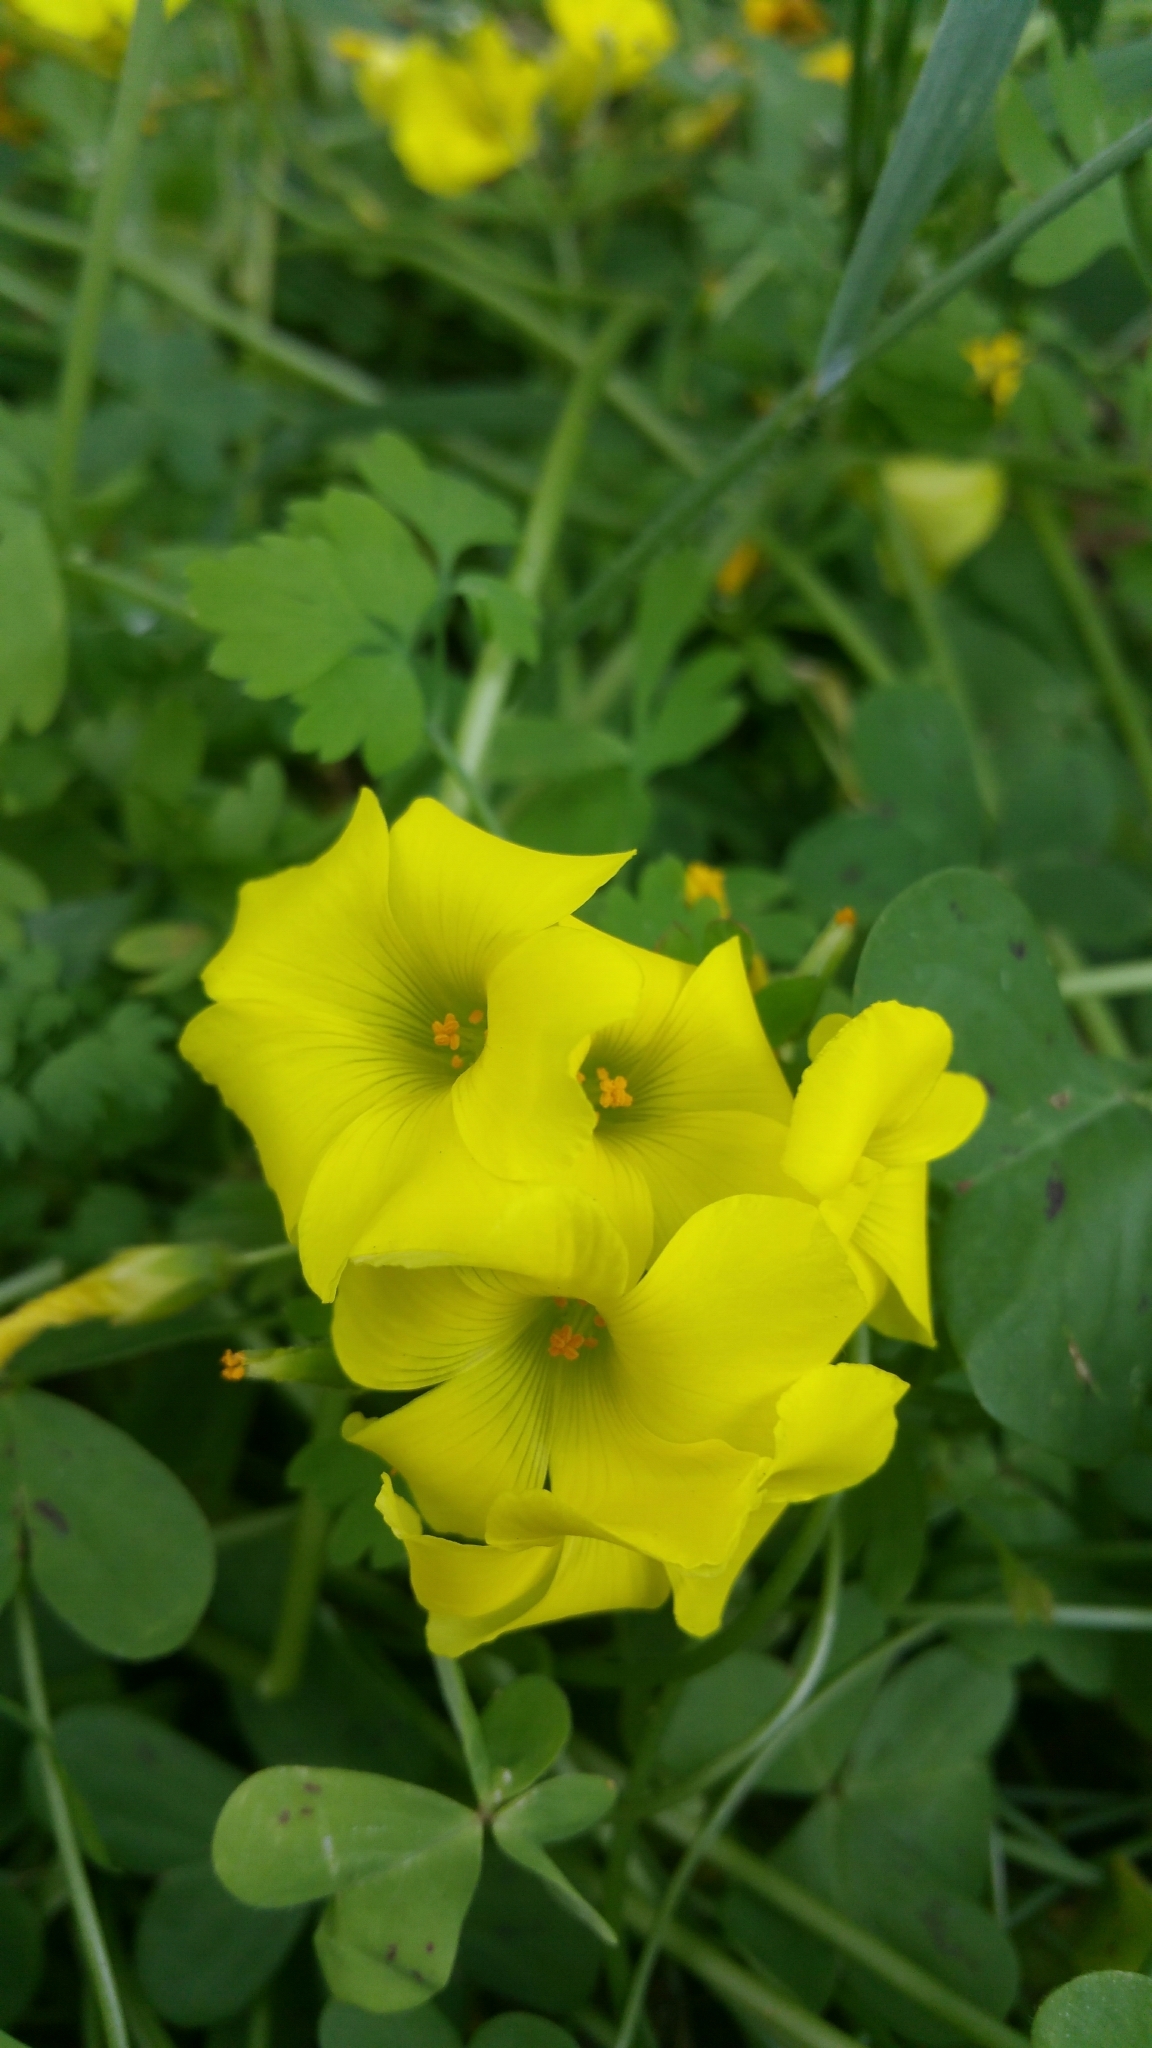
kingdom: Plantae
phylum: Tracheophyta
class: Magnoliopsida
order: Oxalidales
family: Oxalidaceae
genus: Oxalis
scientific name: Oxalis pes-caprae
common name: Bermuda-buttercup
